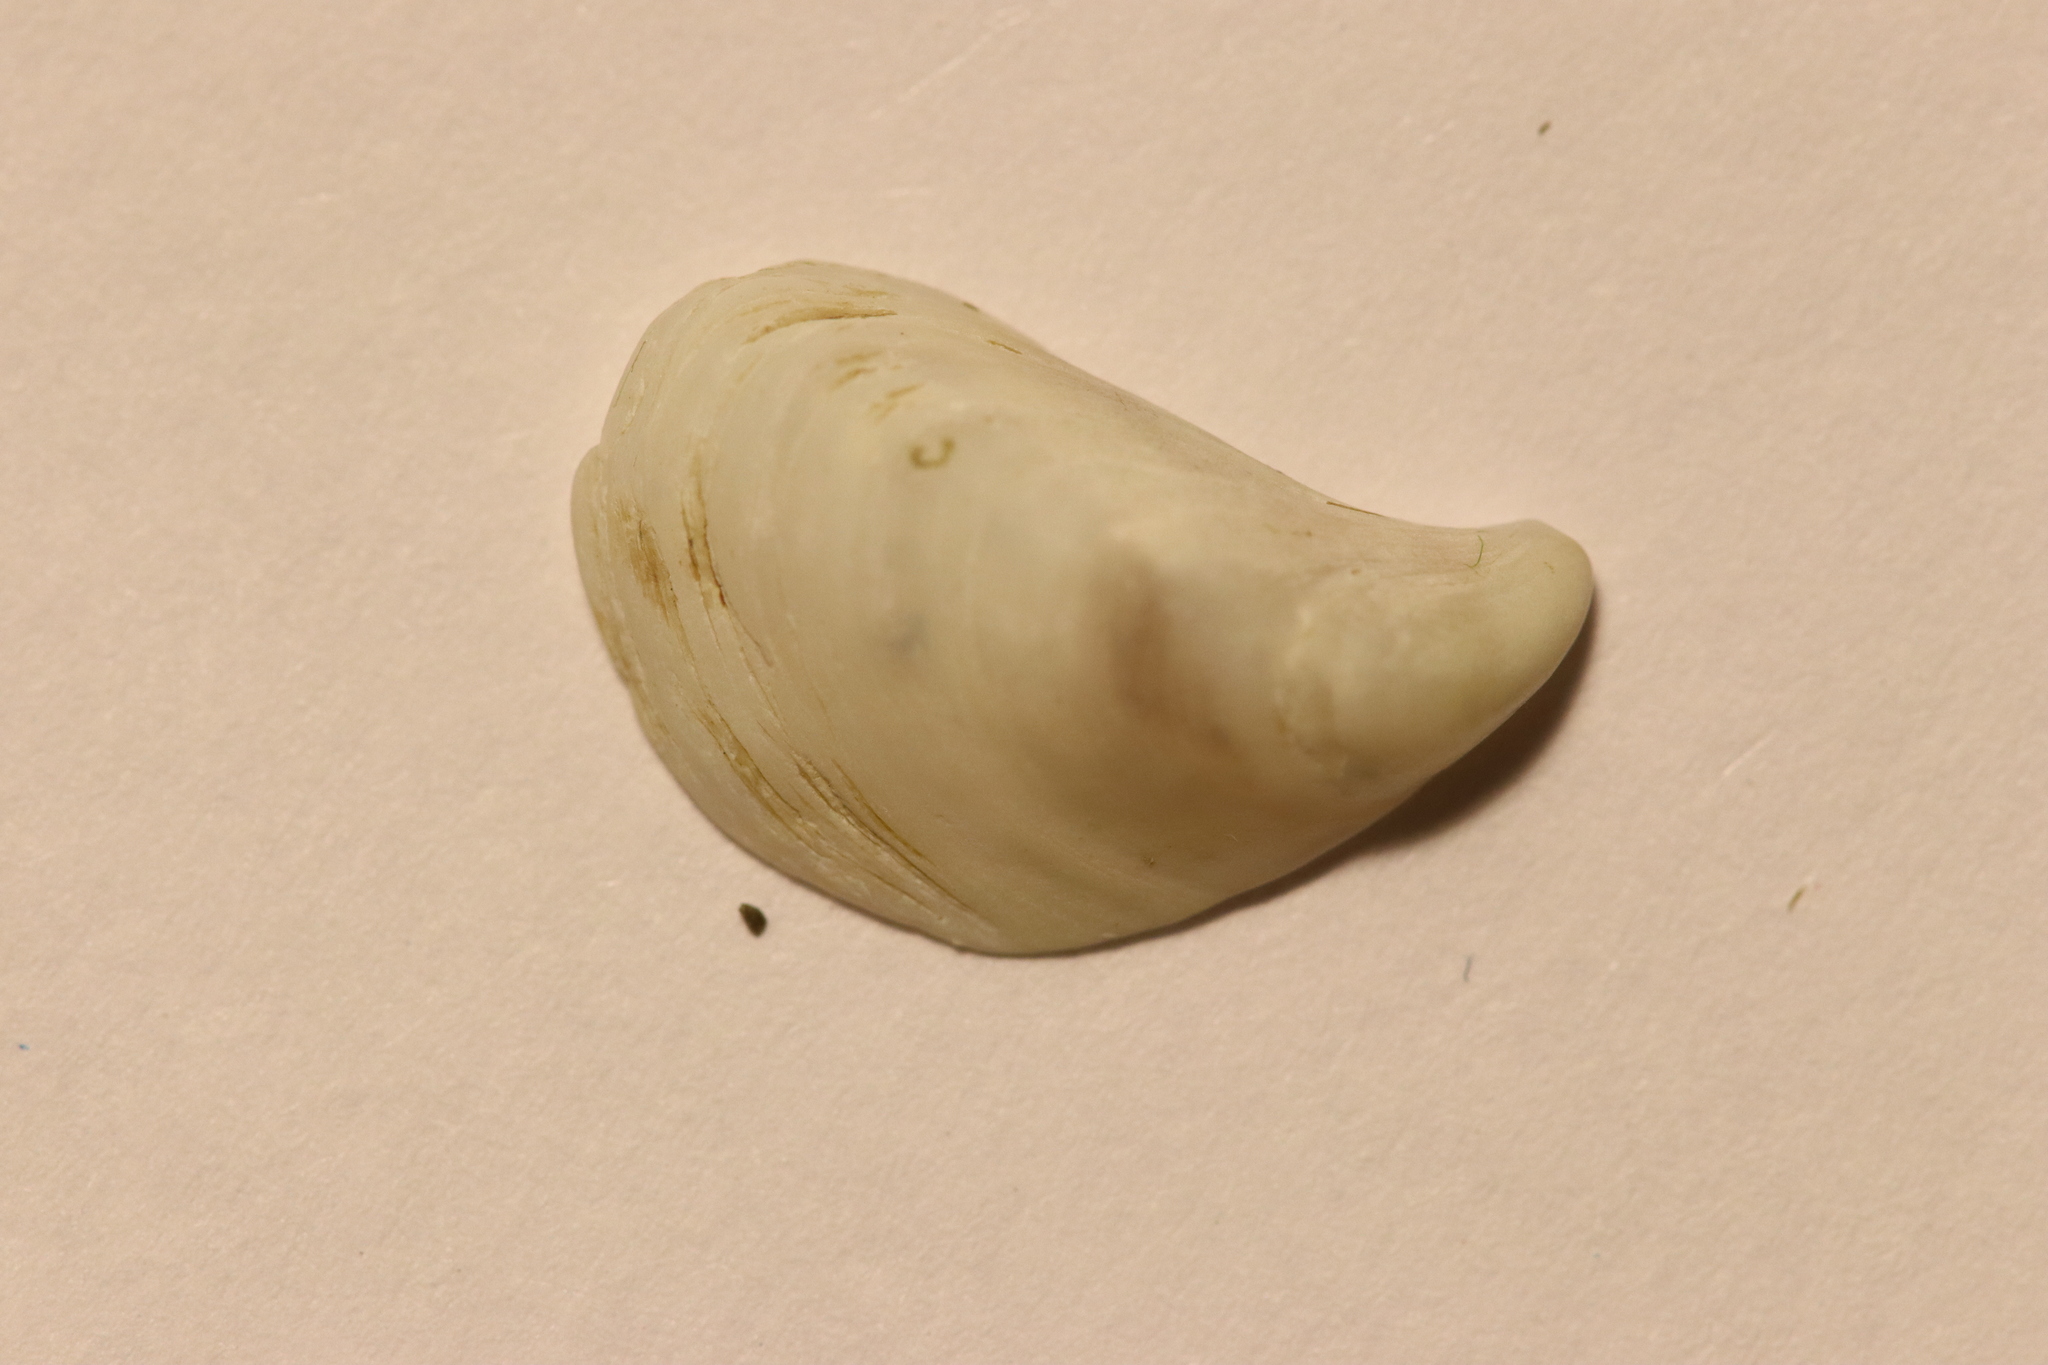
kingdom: Animalia
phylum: Mollusca
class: Bivalvia
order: Myida
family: Dreissenidae
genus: Dreissena
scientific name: Dreissena bugensis
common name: Quagga mussel
